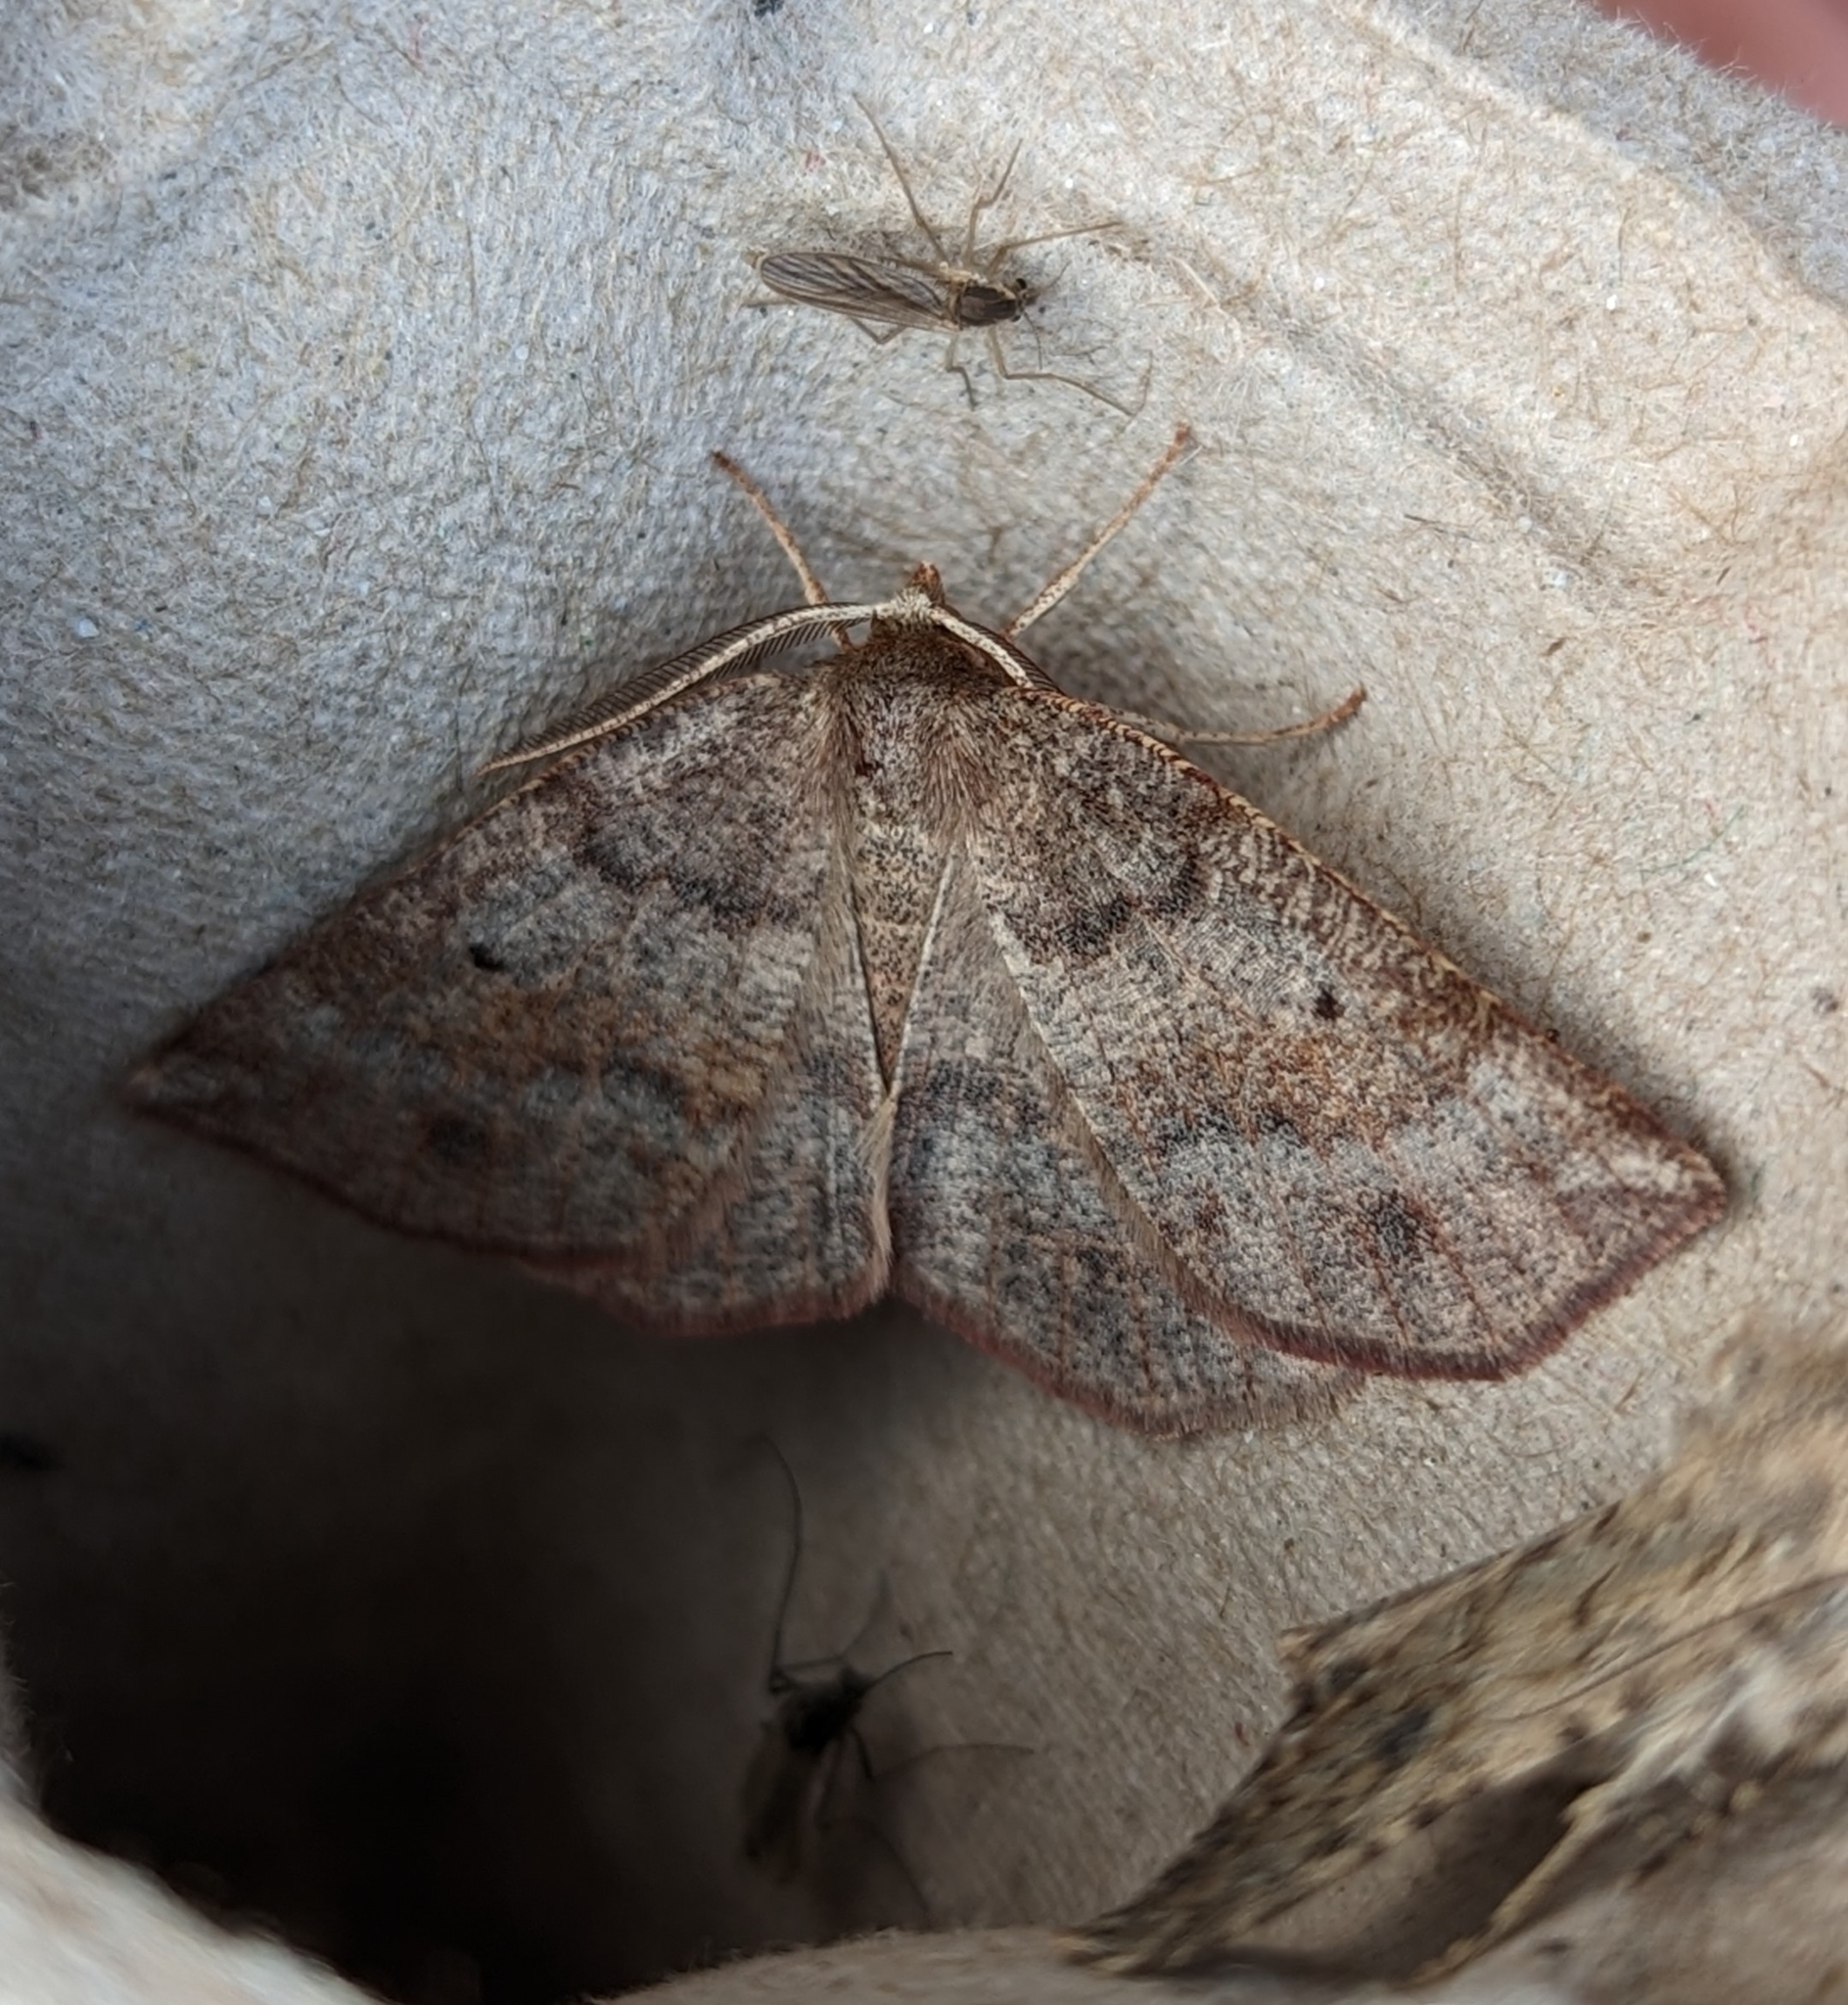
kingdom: Animalia
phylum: Arthropoda
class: Insecta
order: Lepidoptera
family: Geometridae
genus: Metarranthis
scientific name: Metarranthis duaria
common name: Ruddy metarranthis moth
